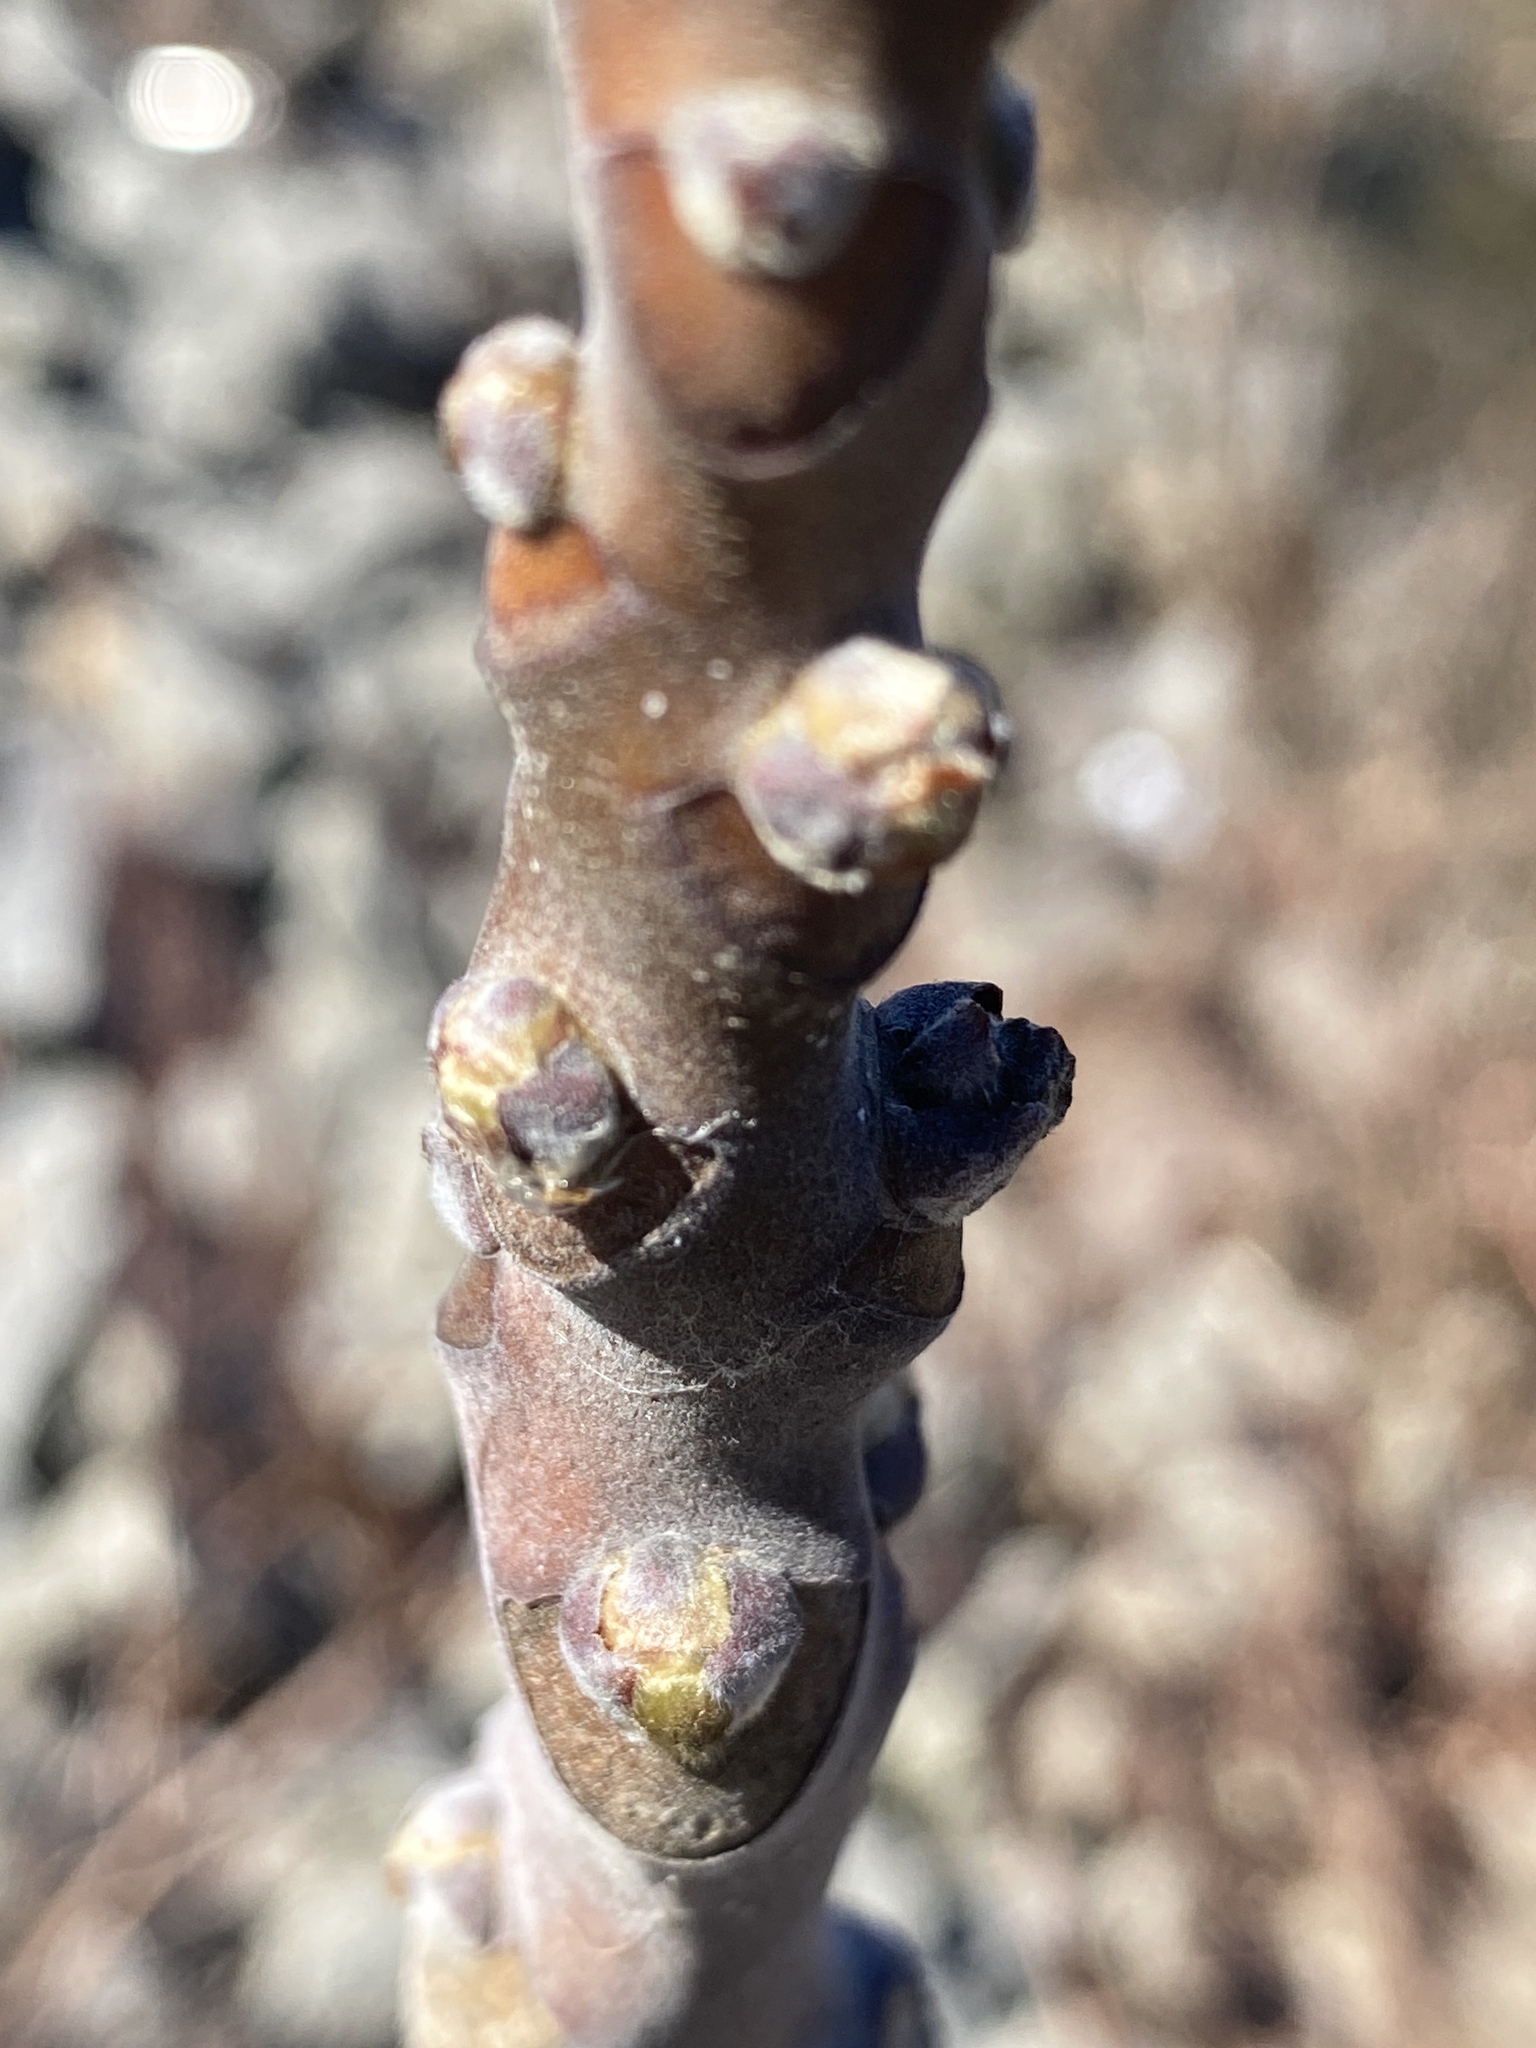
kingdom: Plantae
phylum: Tracheophyta
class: Magnoliopsida
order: Sapindales
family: Simaroubaceae
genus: Ailanthus
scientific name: Ailanthus altissima
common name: Tree-of-heaven
